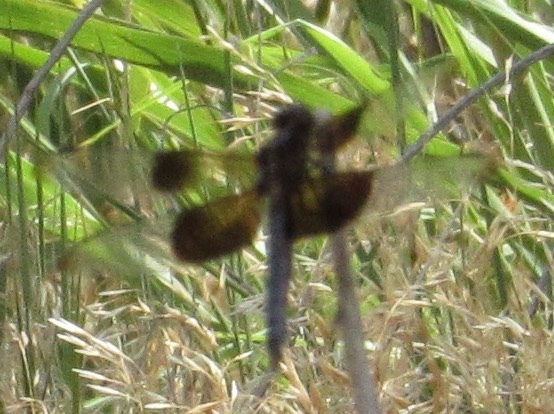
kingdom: Animalia
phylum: Arthropoda
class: Insecta
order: Odonata
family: Libellulidae
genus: Libellula
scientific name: Libellula luctuosa
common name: Widow skimmer
